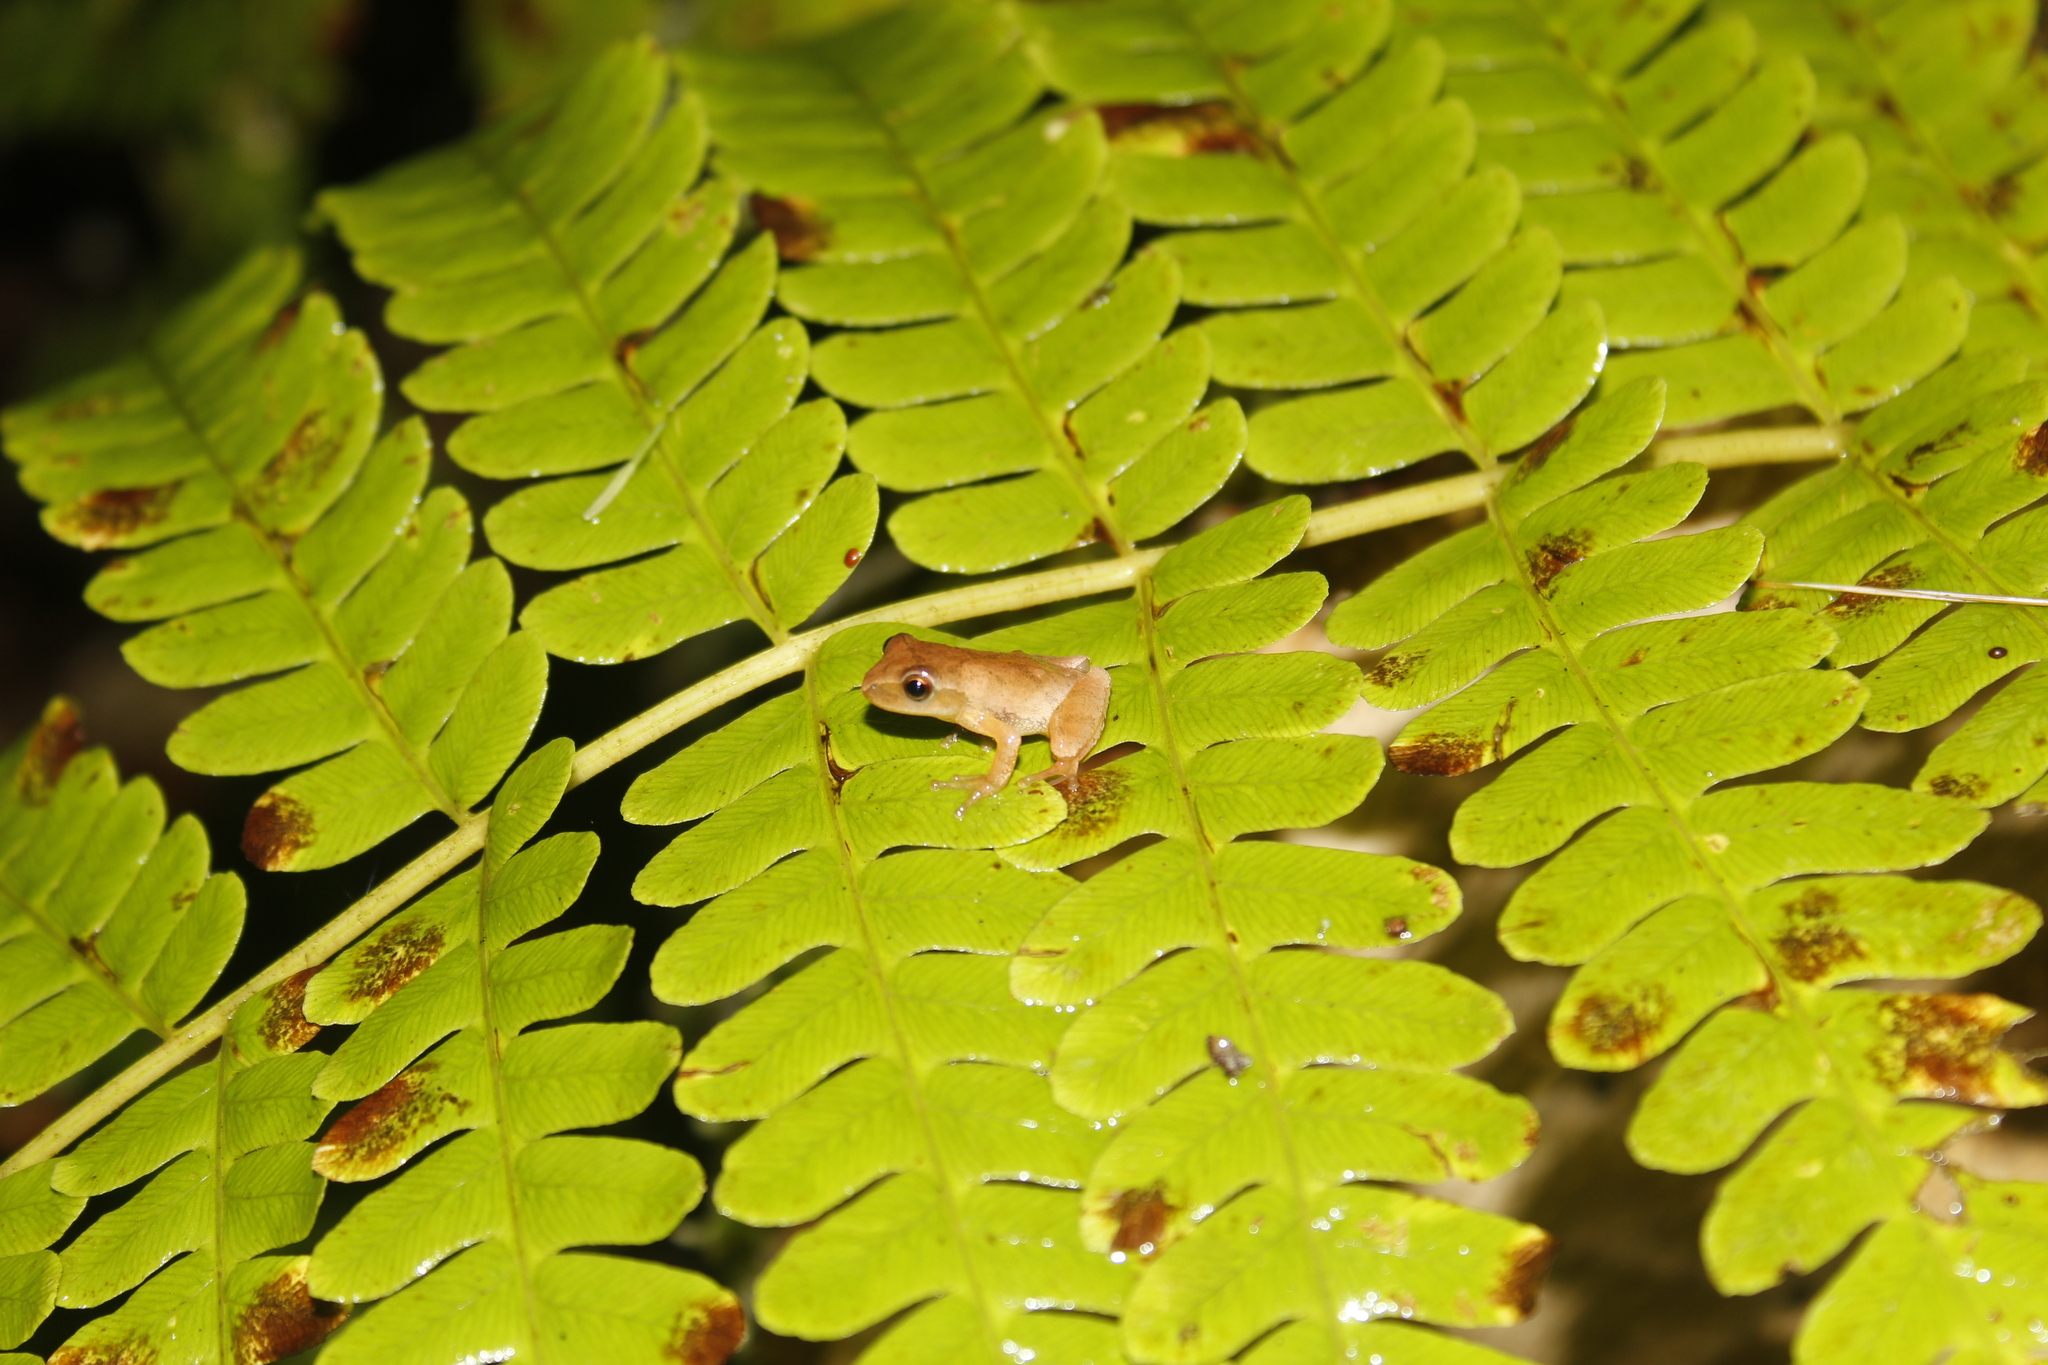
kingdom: Animalia
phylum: Chordata
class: Amphibia
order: Anura
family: Hylidae
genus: Pseudacris
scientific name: Pseudacris crucifer
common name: Spring peeper
